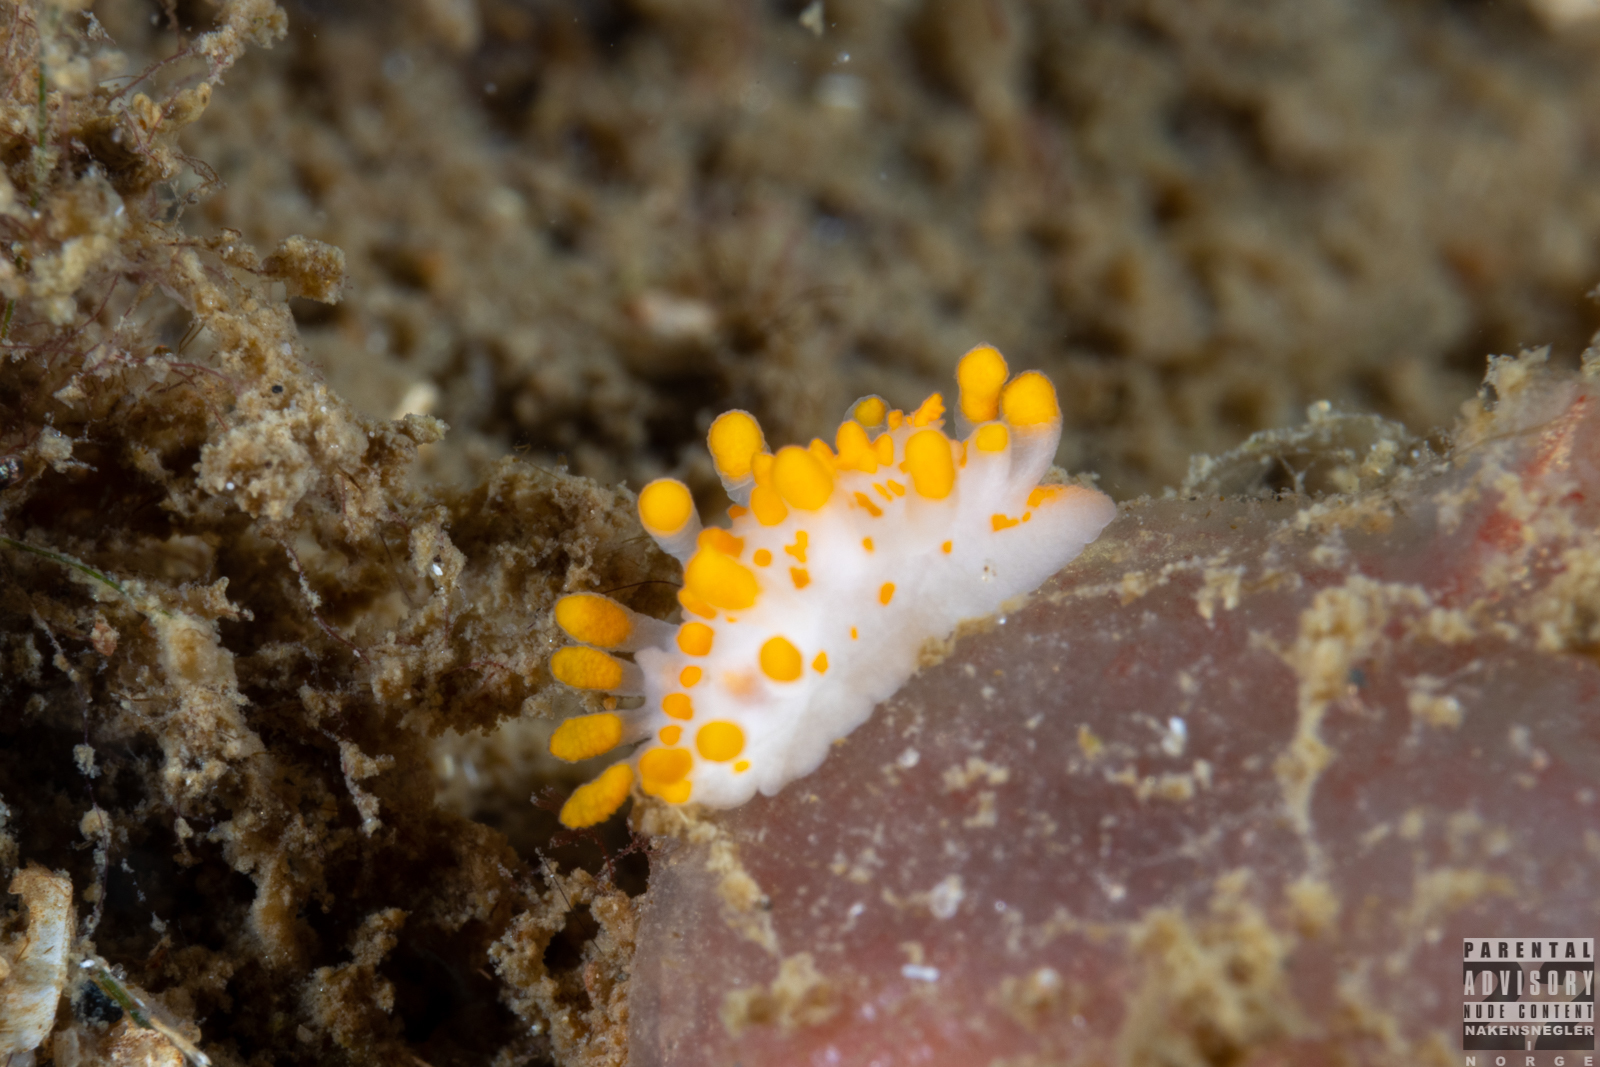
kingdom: Animalia
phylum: Mollusca
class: Gastropoda
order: Nudibranchia
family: Polyceridae
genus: Limacia
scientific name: Limacia clavigera
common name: Orange-clubbed sea slug
